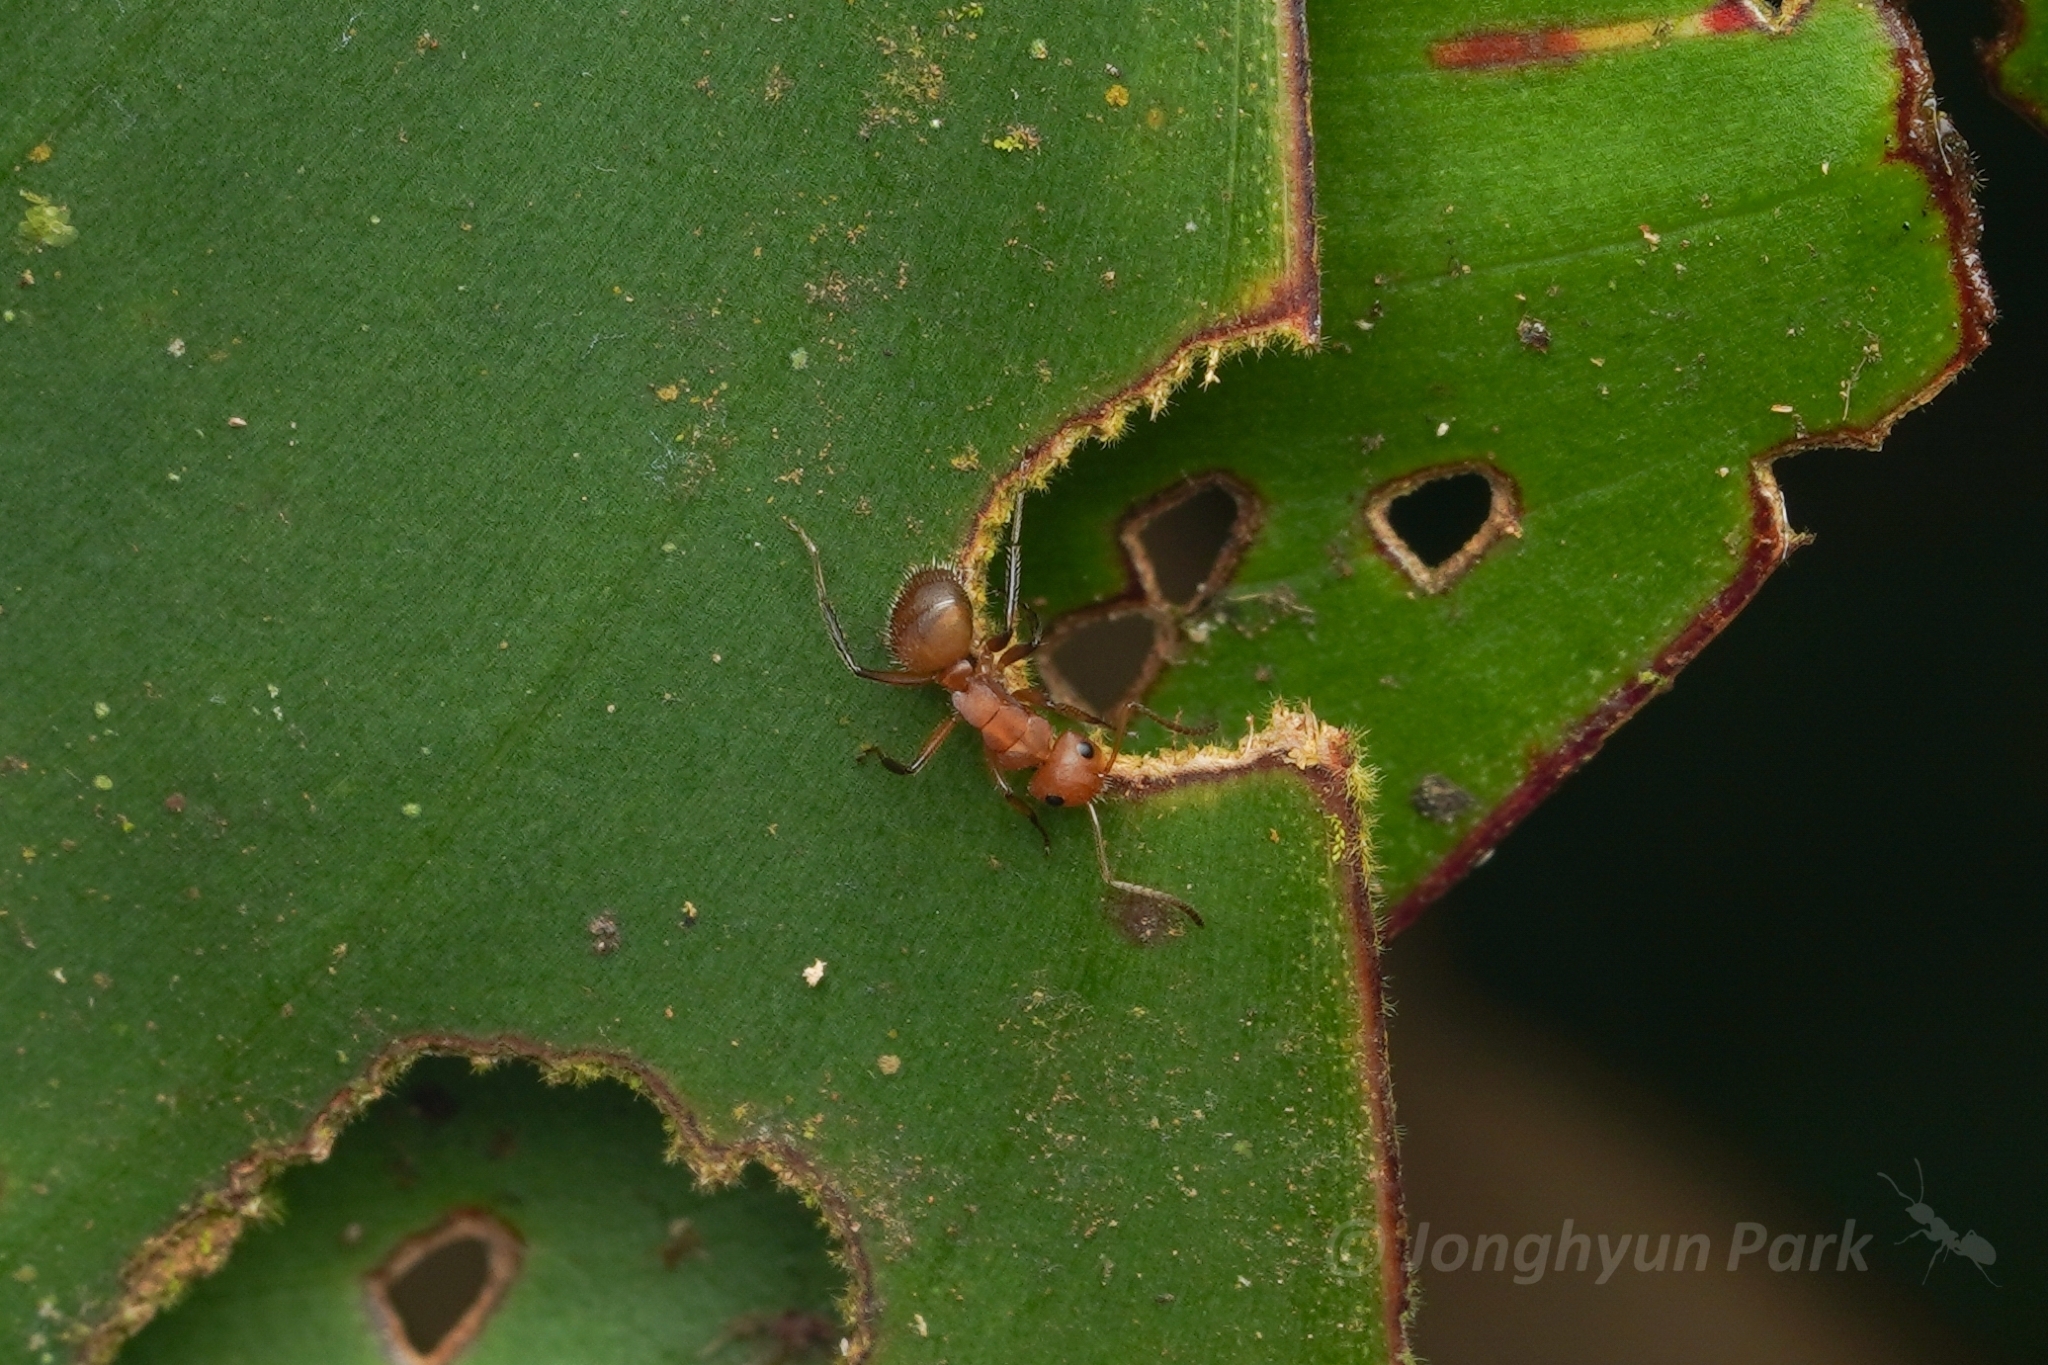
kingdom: Animalia
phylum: Arthropoda
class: Insecta
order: Hymenoptera
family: Formicidae
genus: Camponotus
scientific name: Camponotus latangulus
